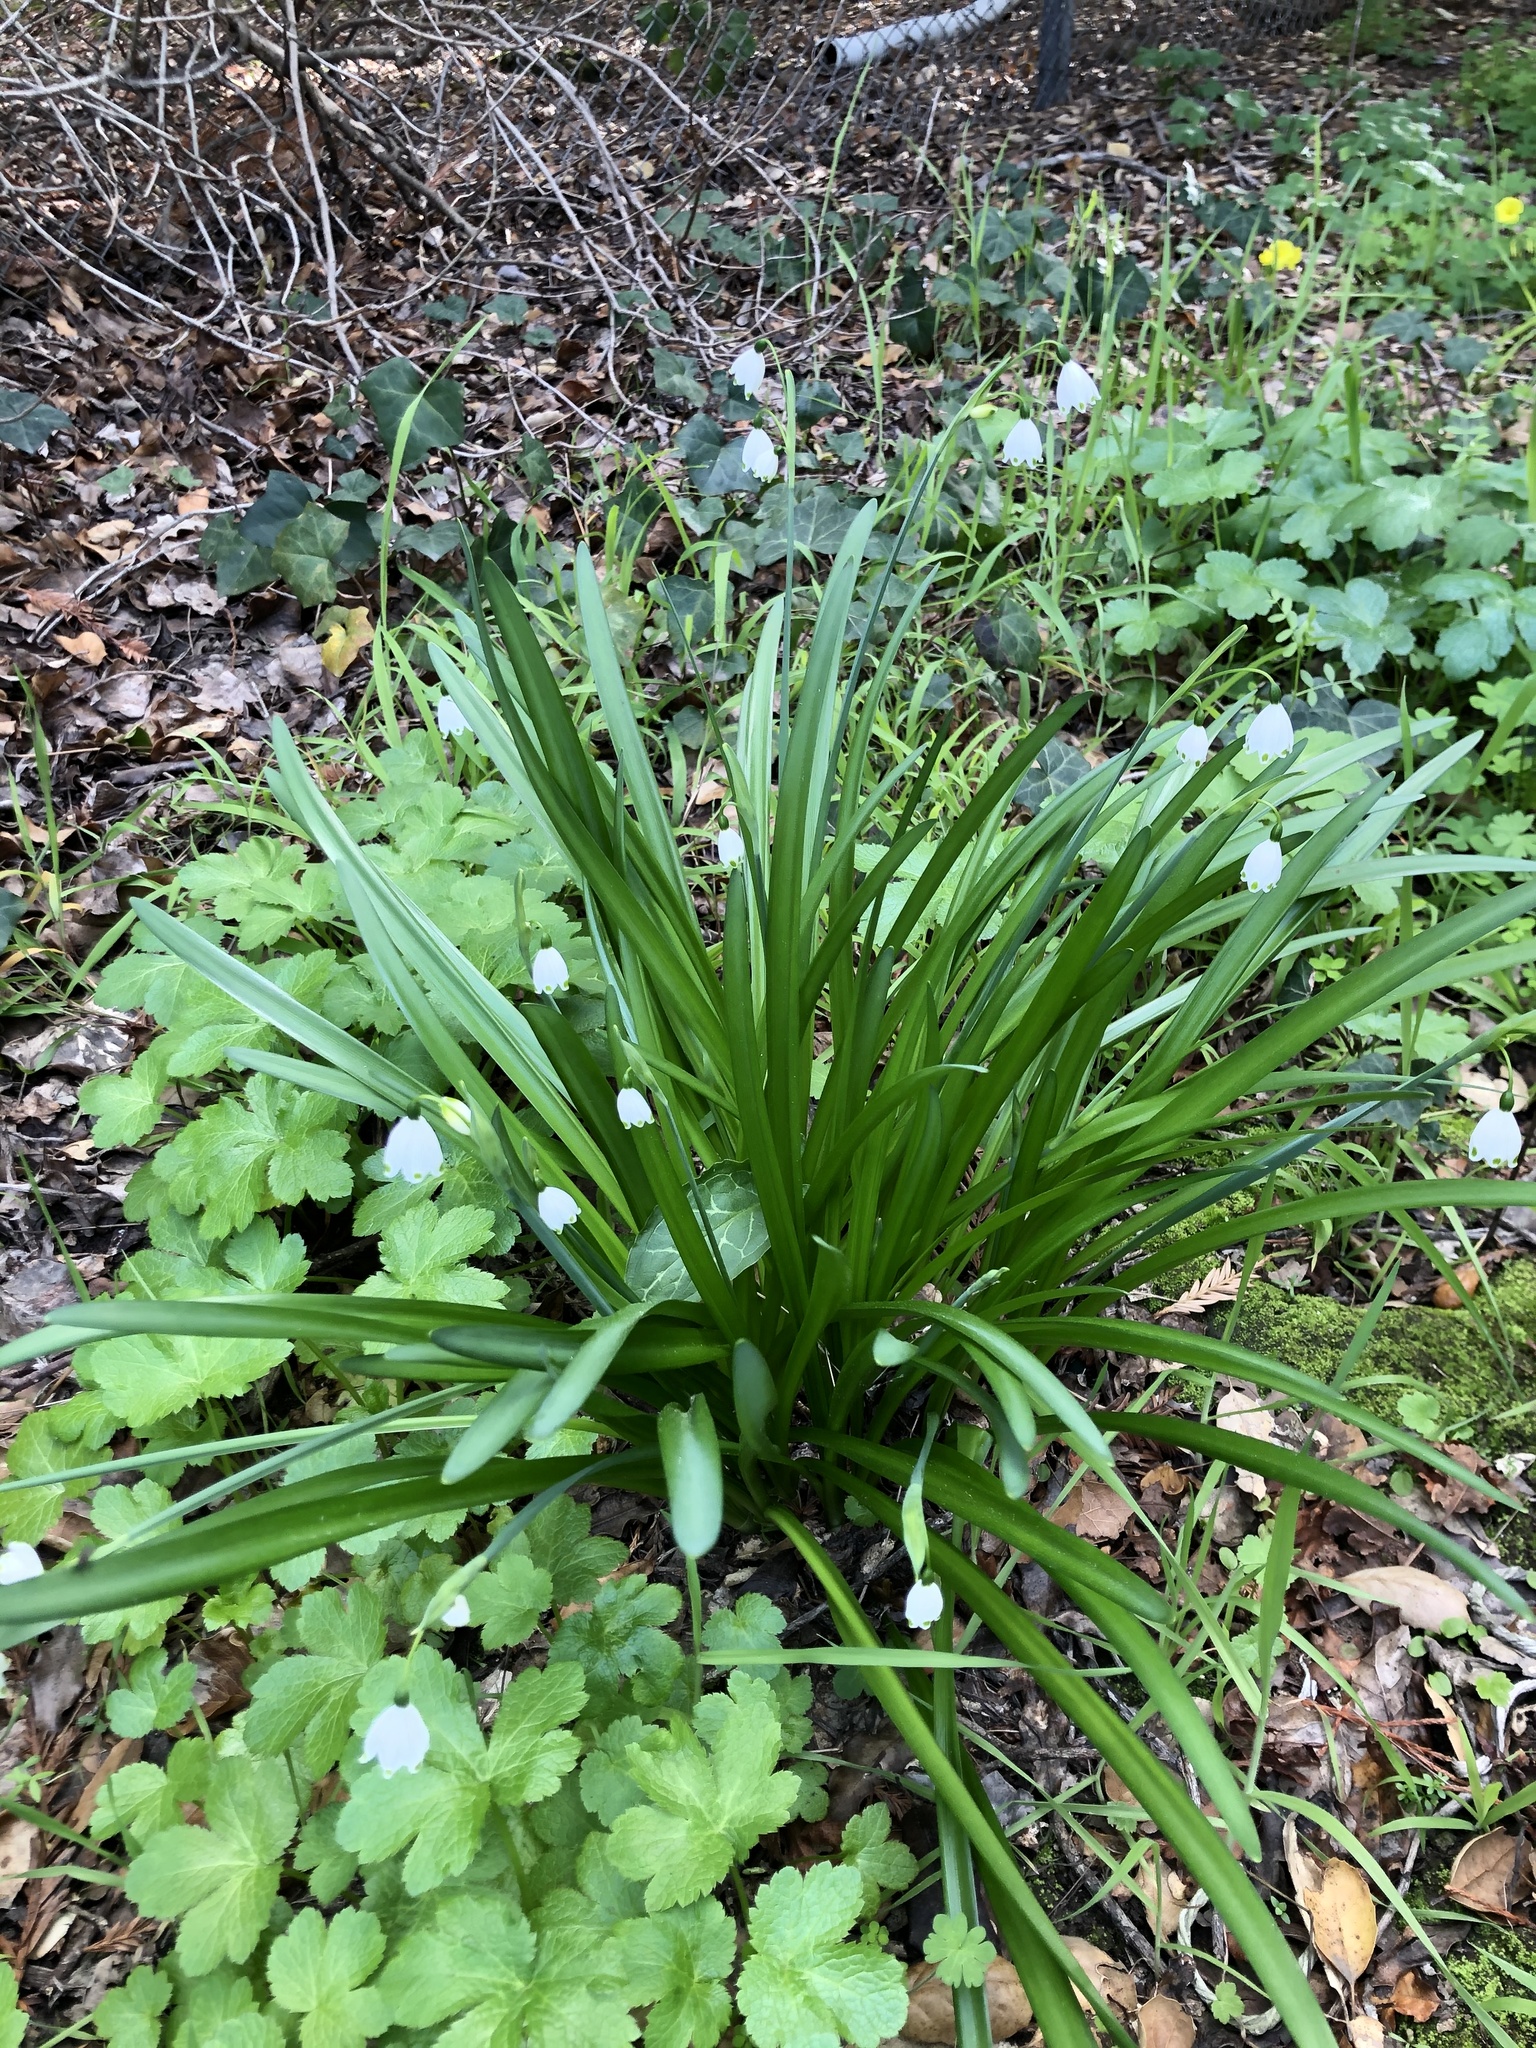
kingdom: Plantae
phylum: Tracheophyta
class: Liliopsida
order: Asparagales
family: Amaryllidaceae
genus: Leucojum
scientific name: Leucojum aestivum
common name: Summer snowflake
